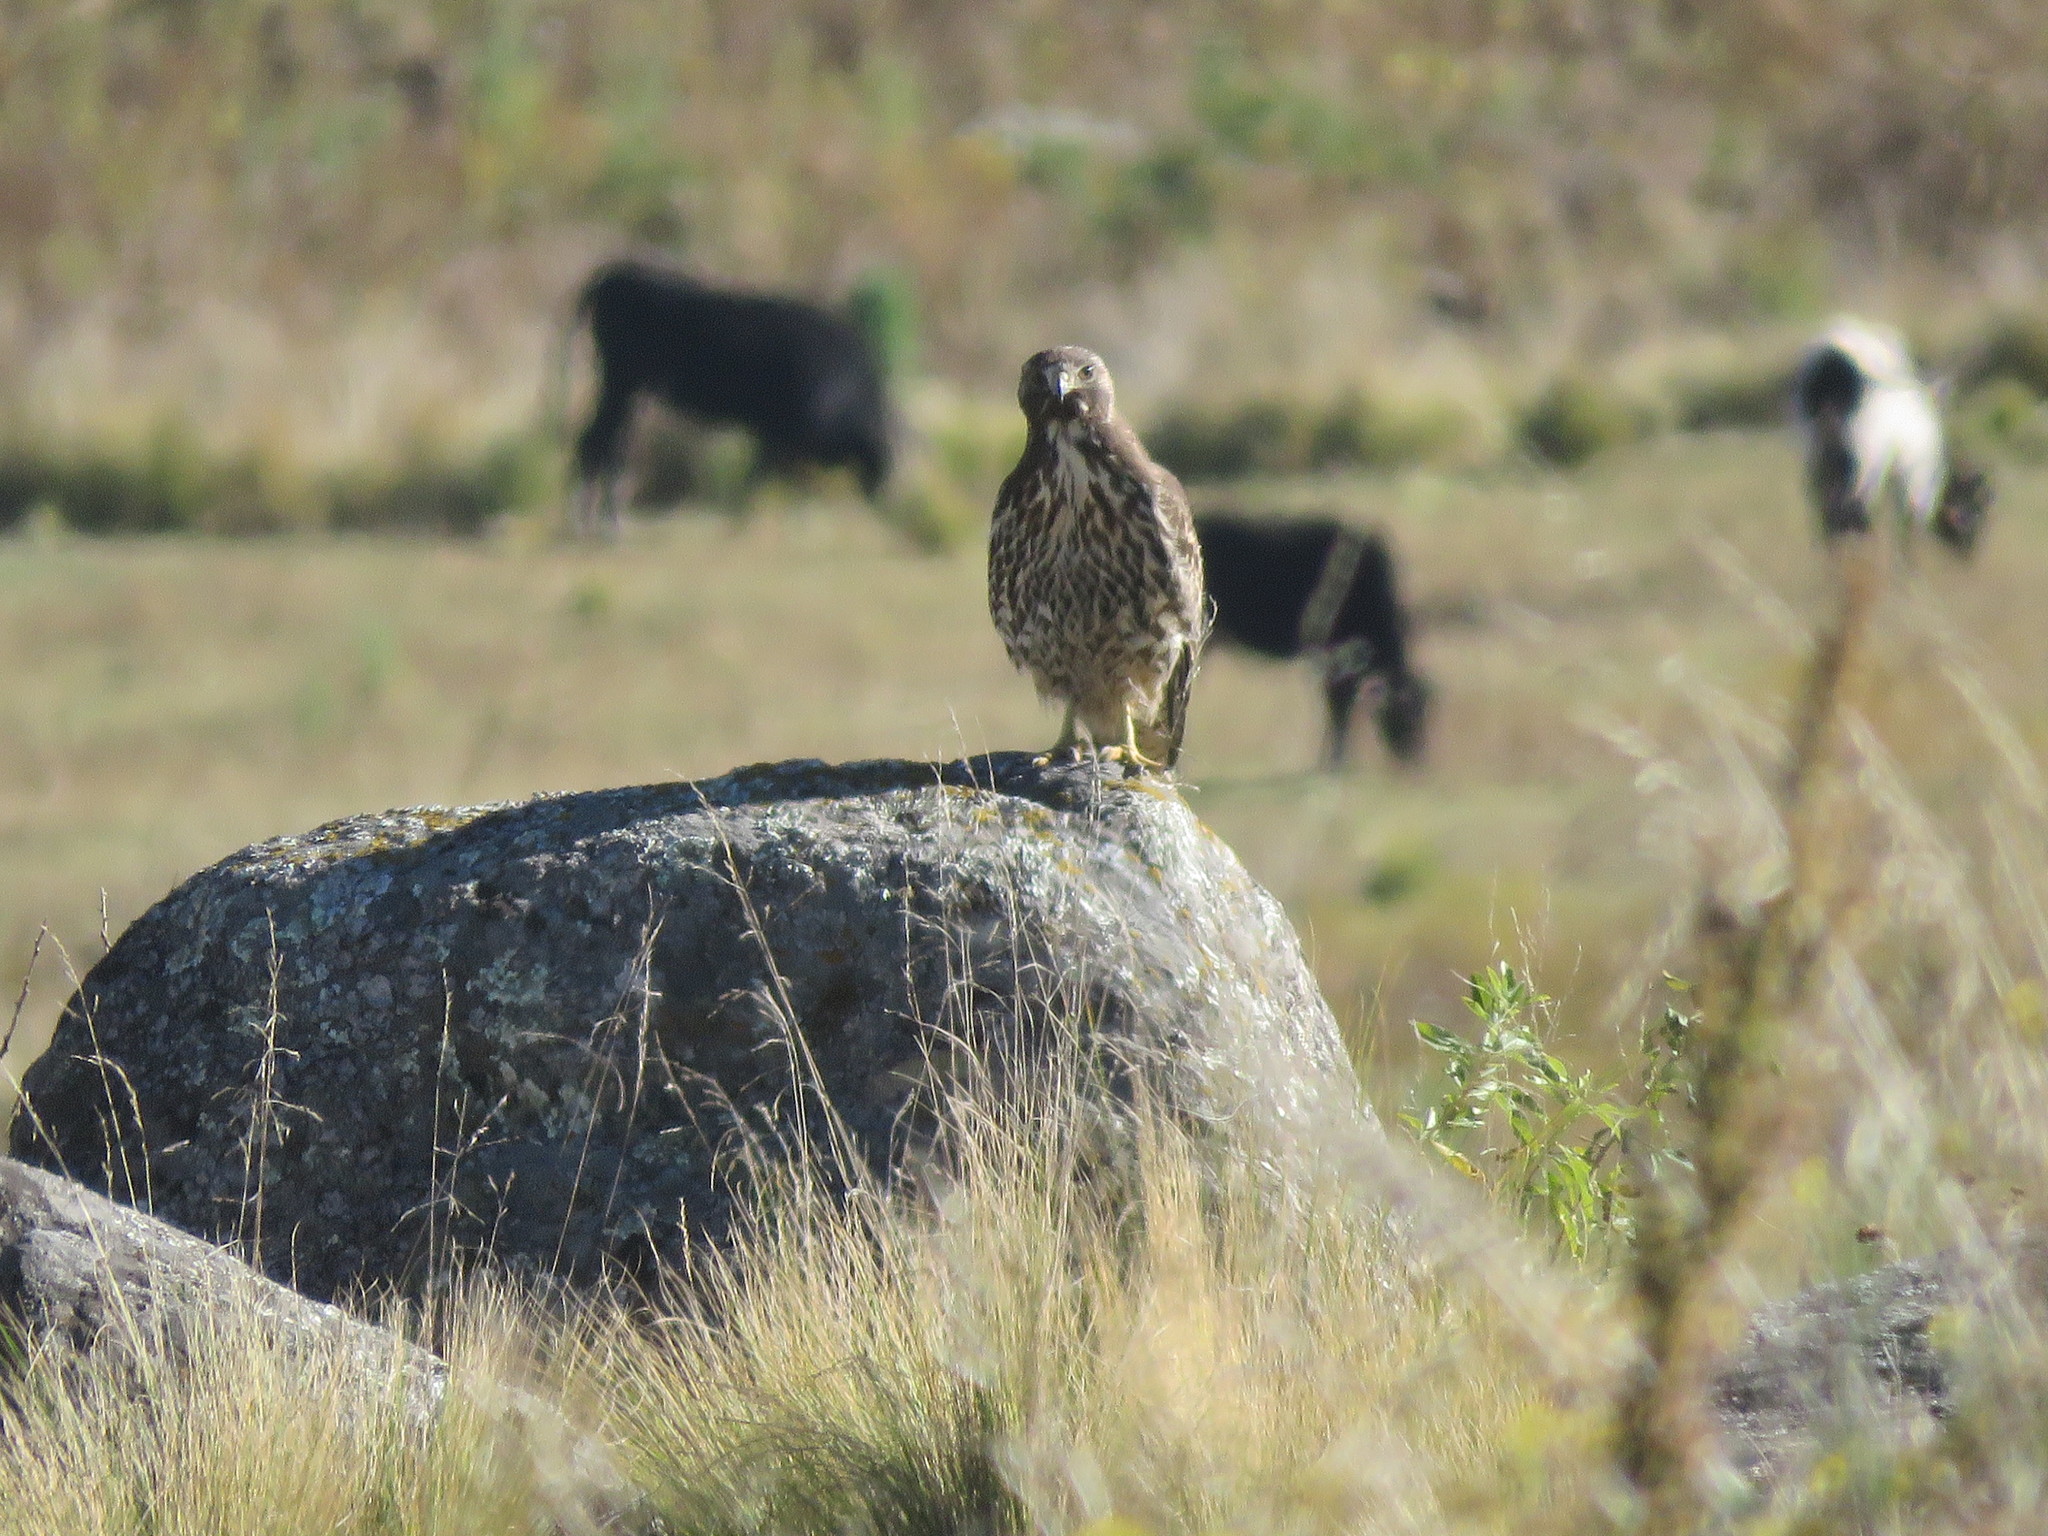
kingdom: Animalia
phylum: Chordata
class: Aves
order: Accipitriformes
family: Accipitridae
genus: Buteo
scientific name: Buteo polyosoma
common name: Variable hawk
